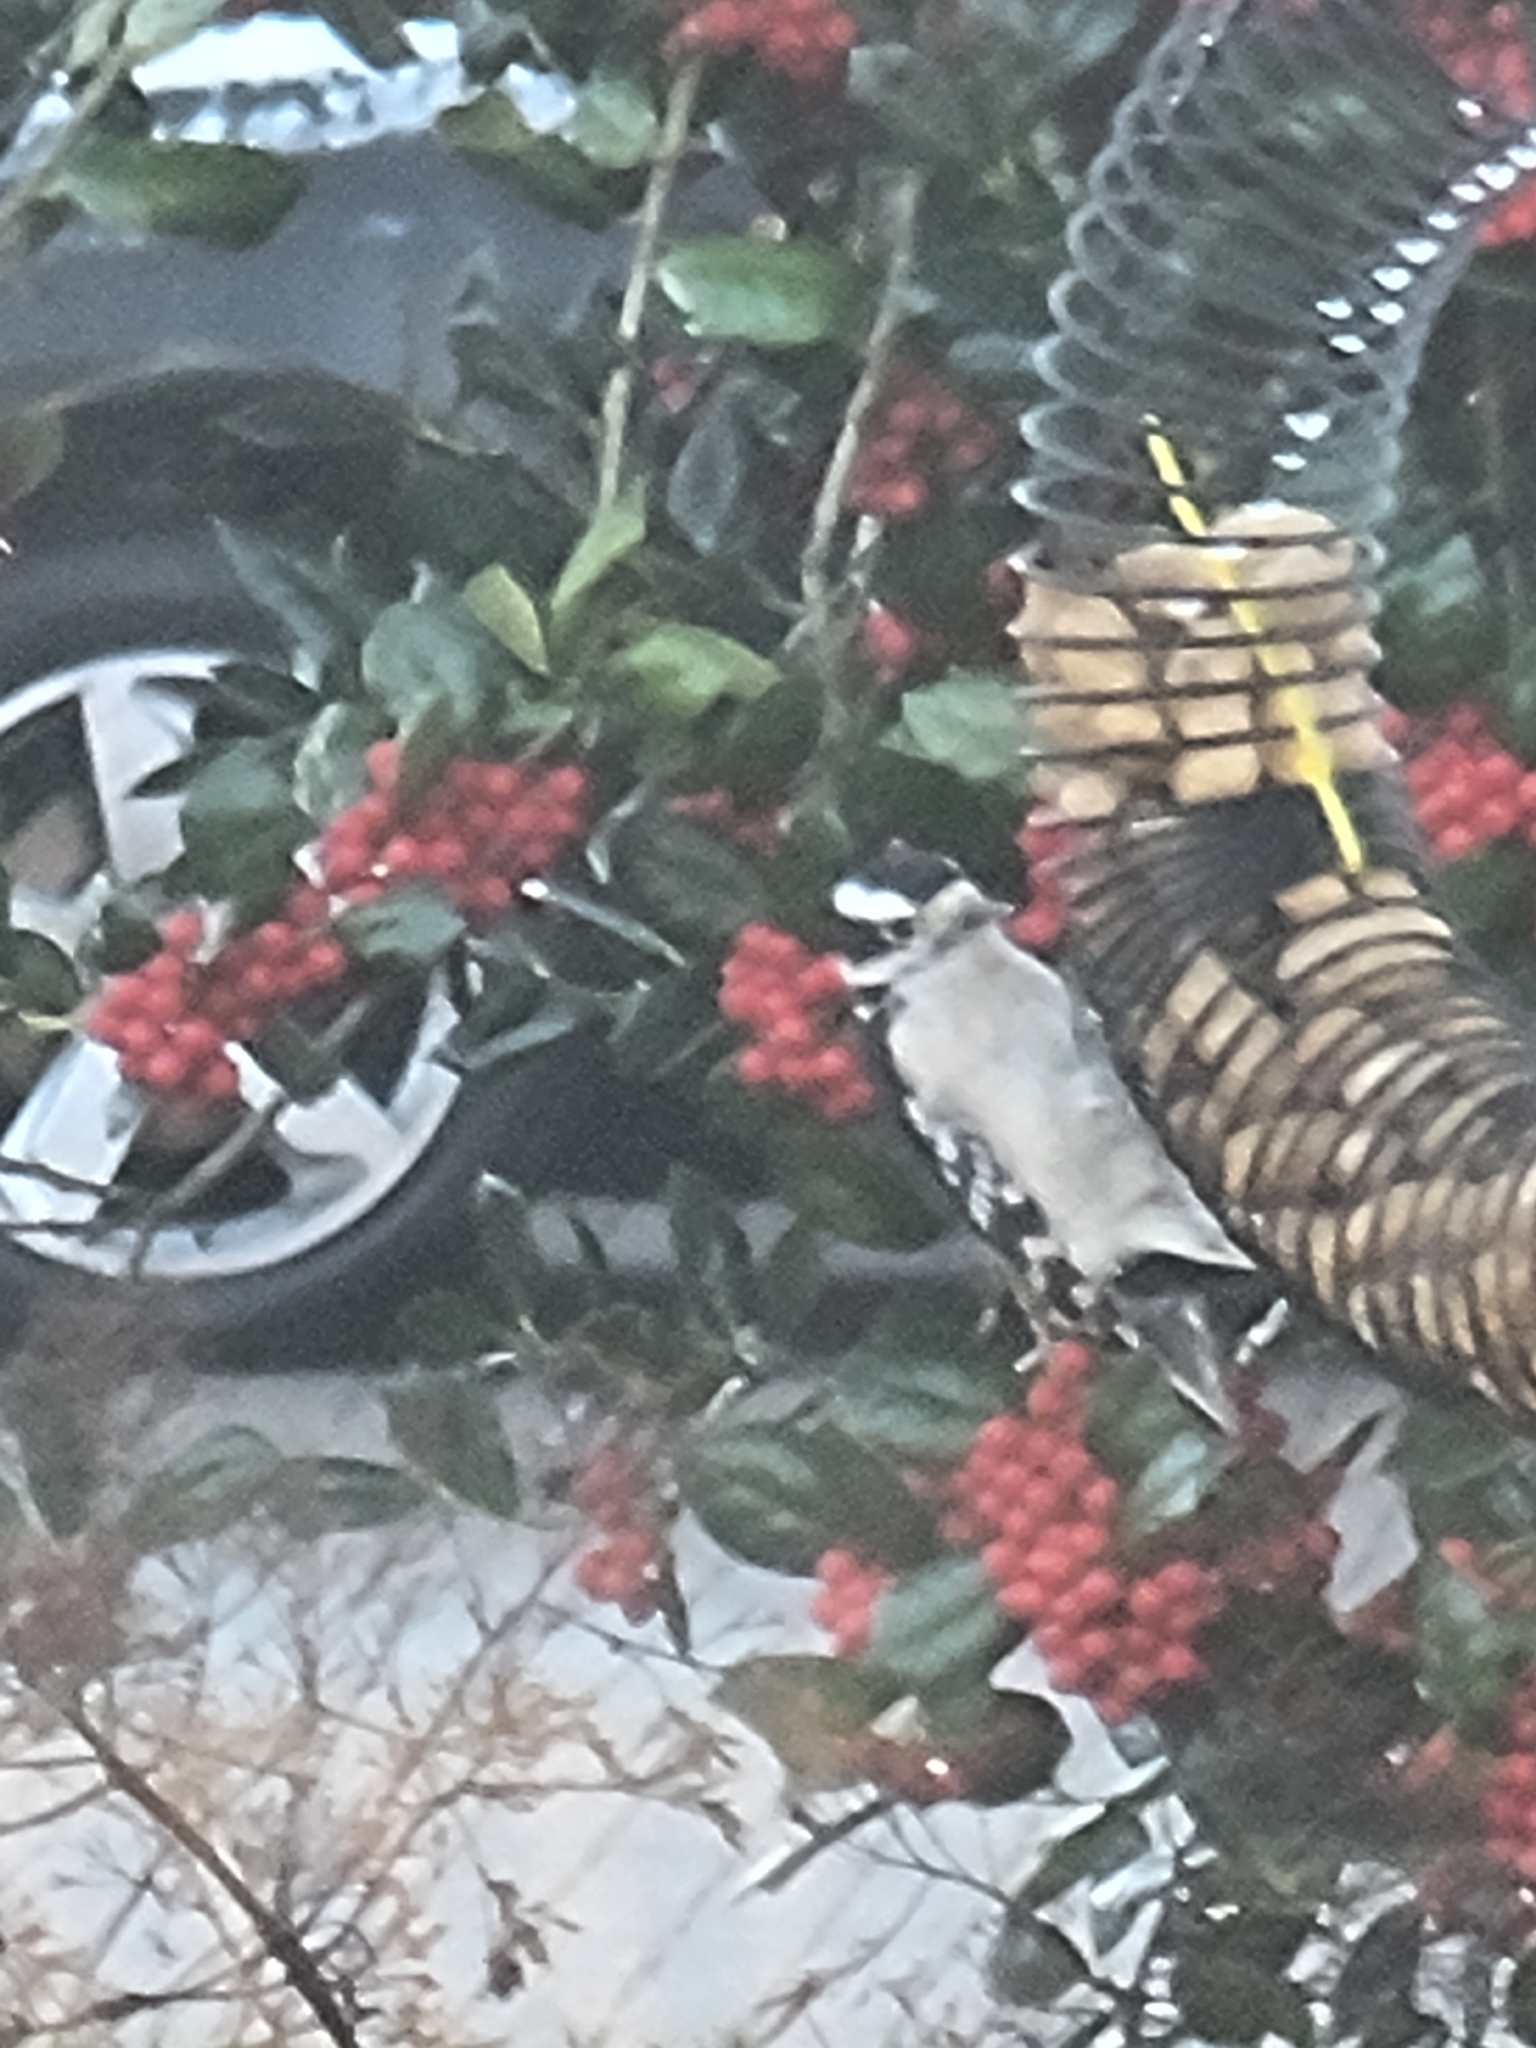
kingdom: Animalia
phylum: Chordata
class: Aves
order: Piciformes
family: Picidae
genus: Dryobates
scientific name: Dryobates pubescens
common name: Downy woodpecker
